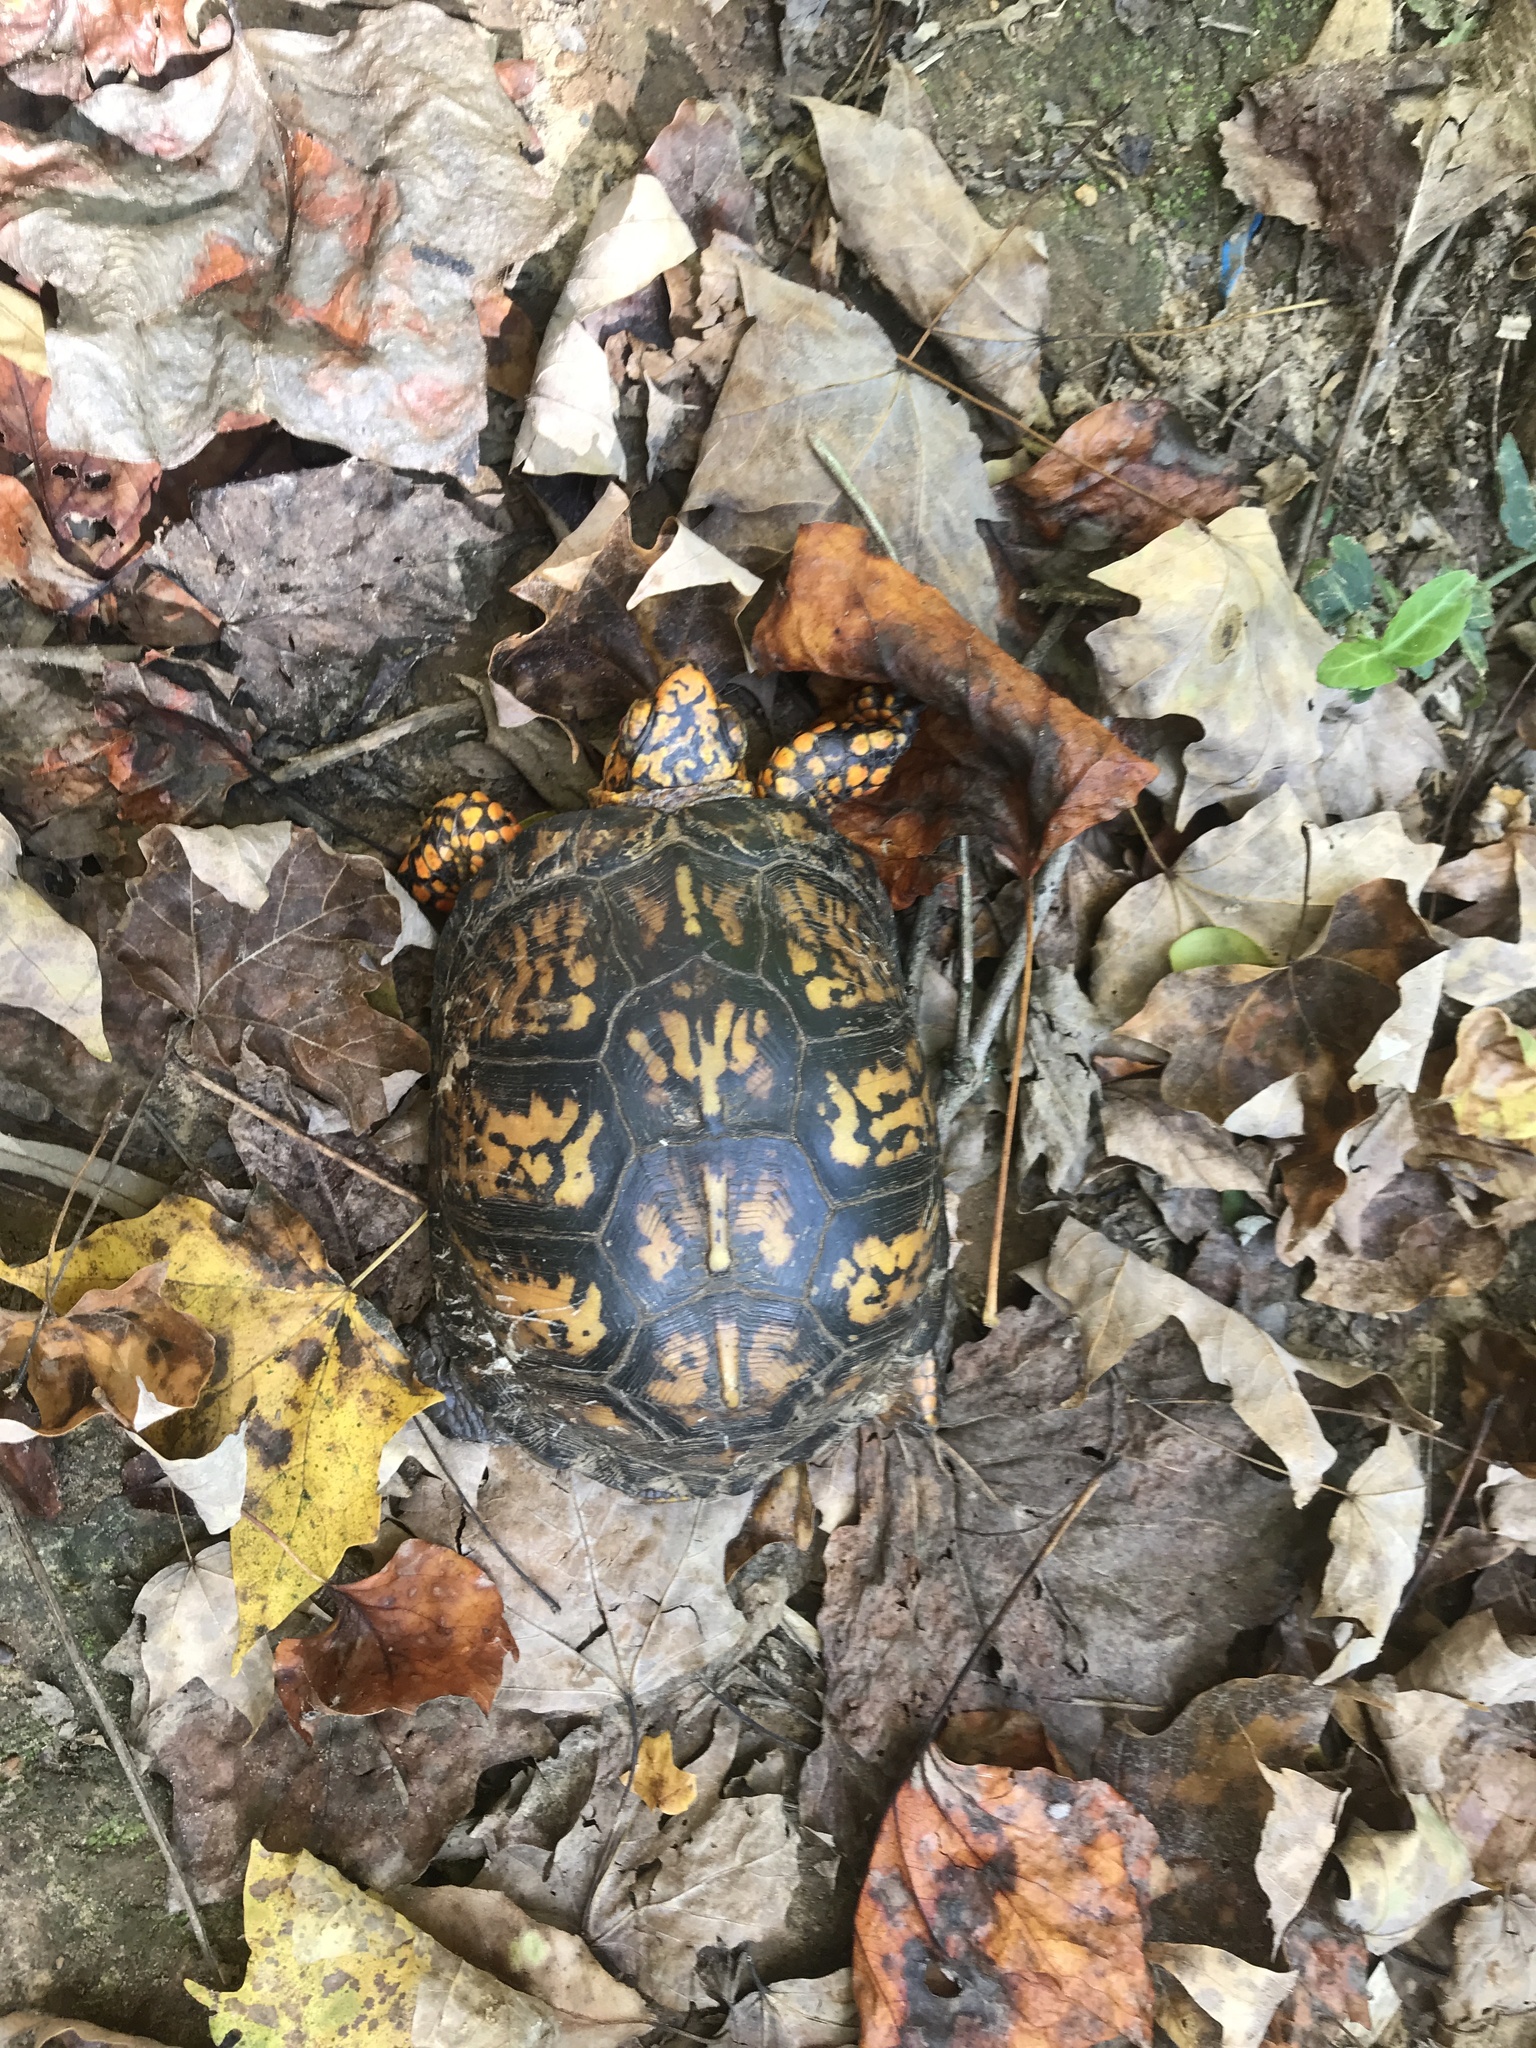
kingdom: Animalia
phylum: Chordata
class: Testudines
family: Emydidae
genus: Terrapene
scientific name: Terrapene carolina
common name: Common box turtle
